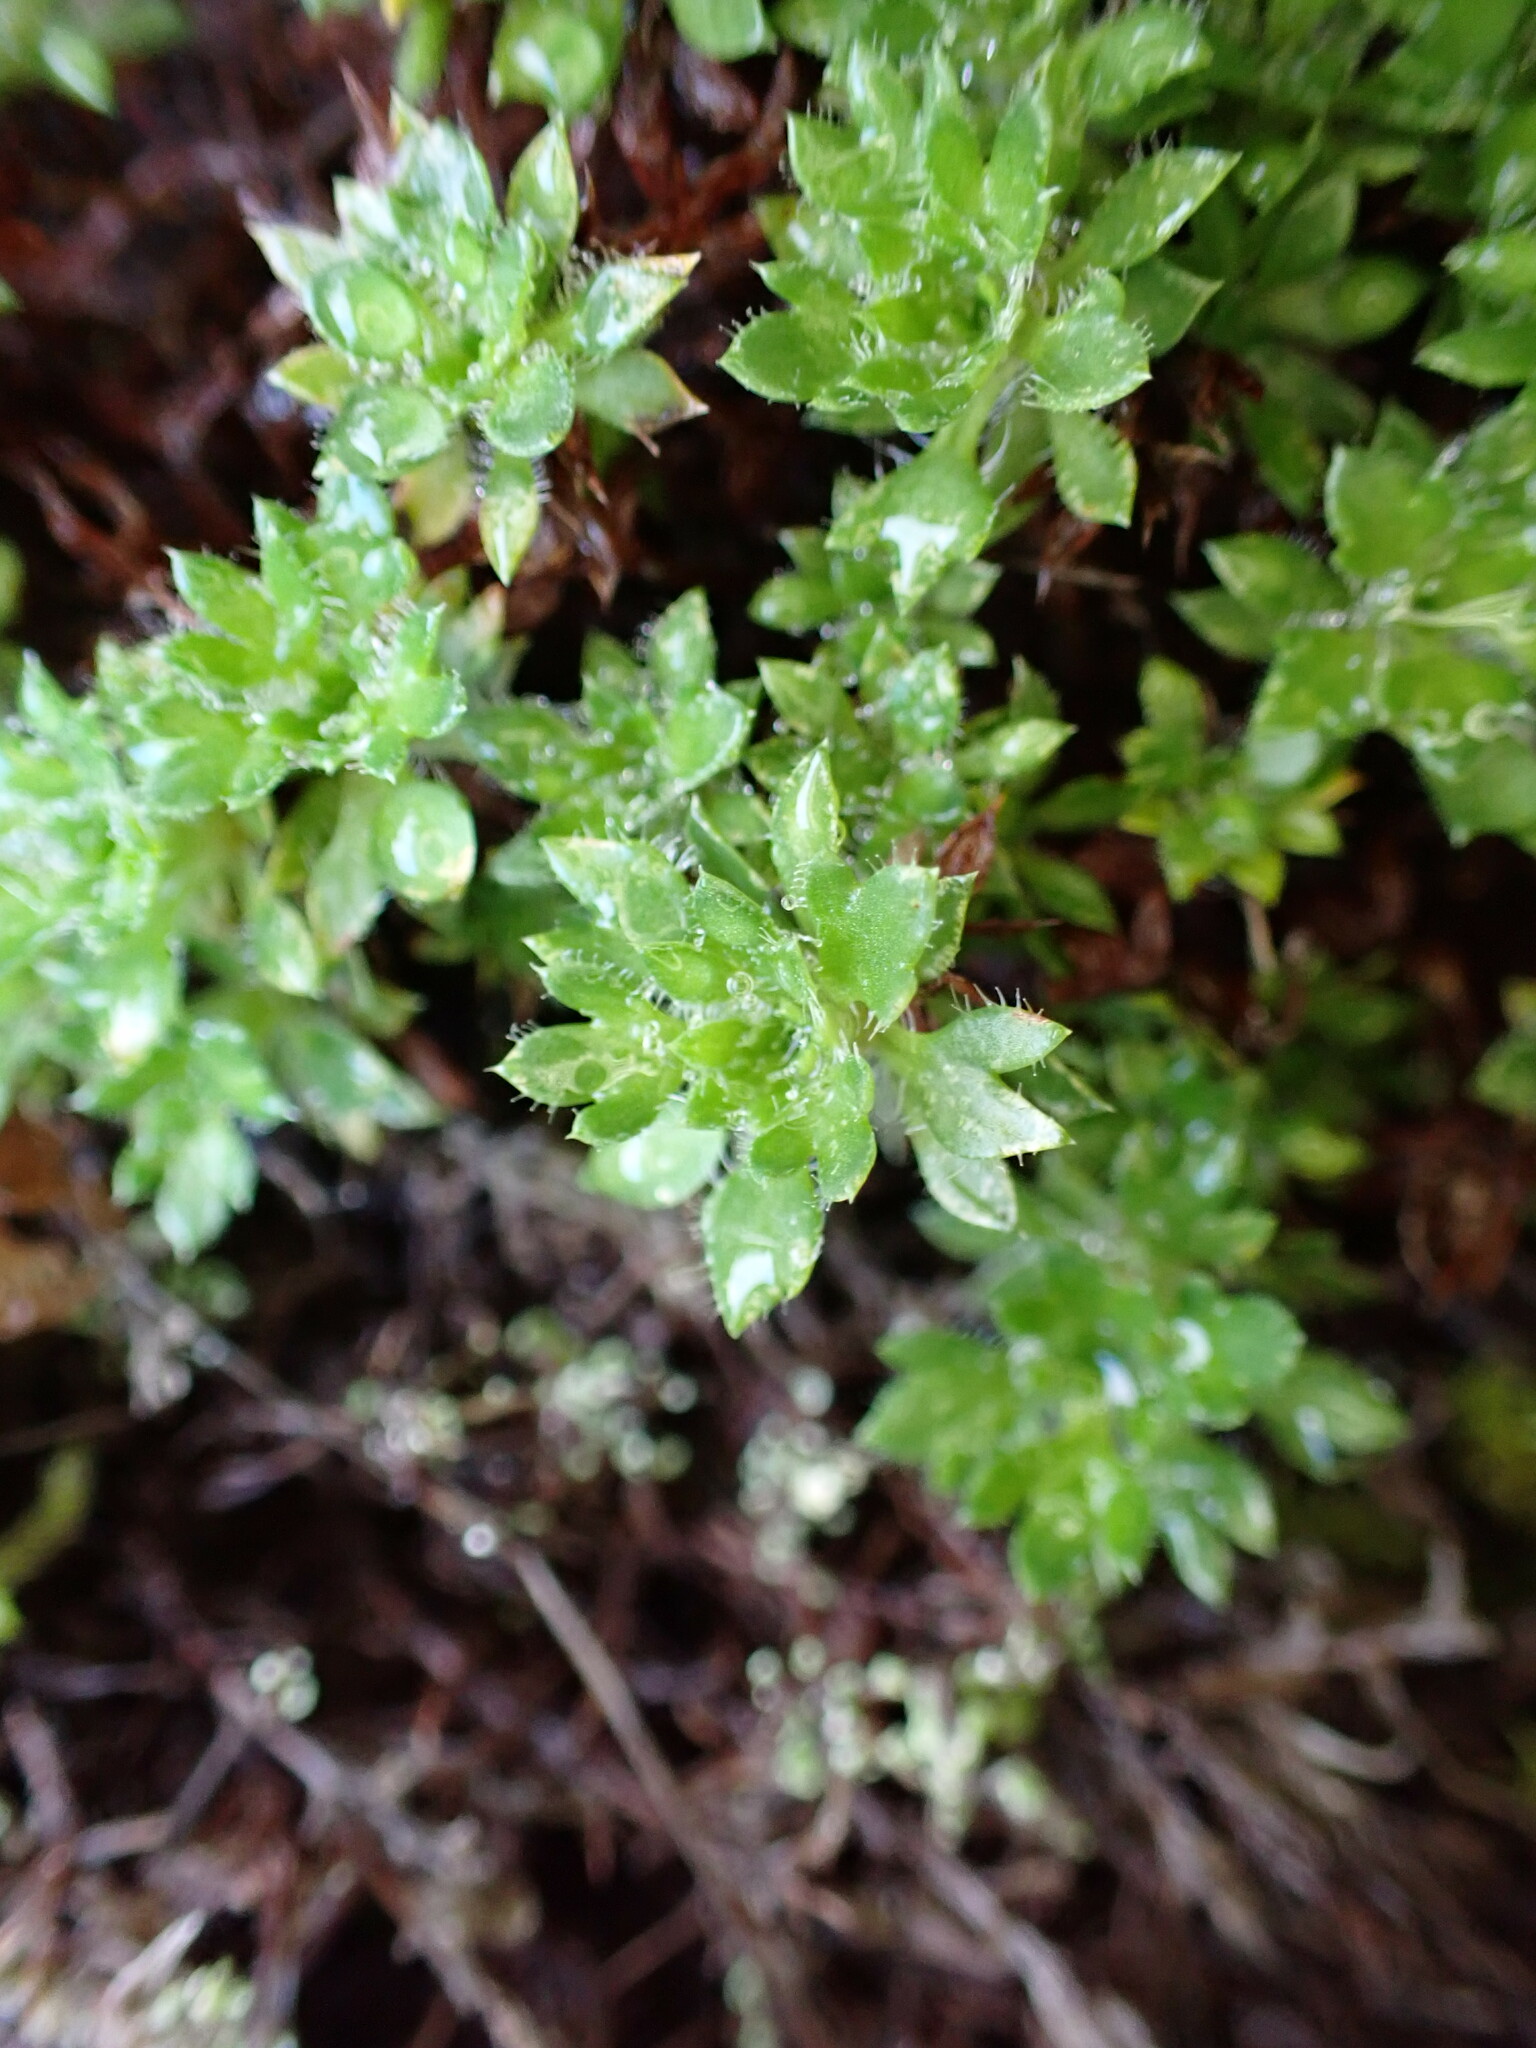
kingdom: Plantae
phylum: Tracheophyta
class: Magnoliopsida
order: Saxifragales
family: Saxifragaceae
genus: Saxifraga
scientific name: Saxifraga fragosoi
